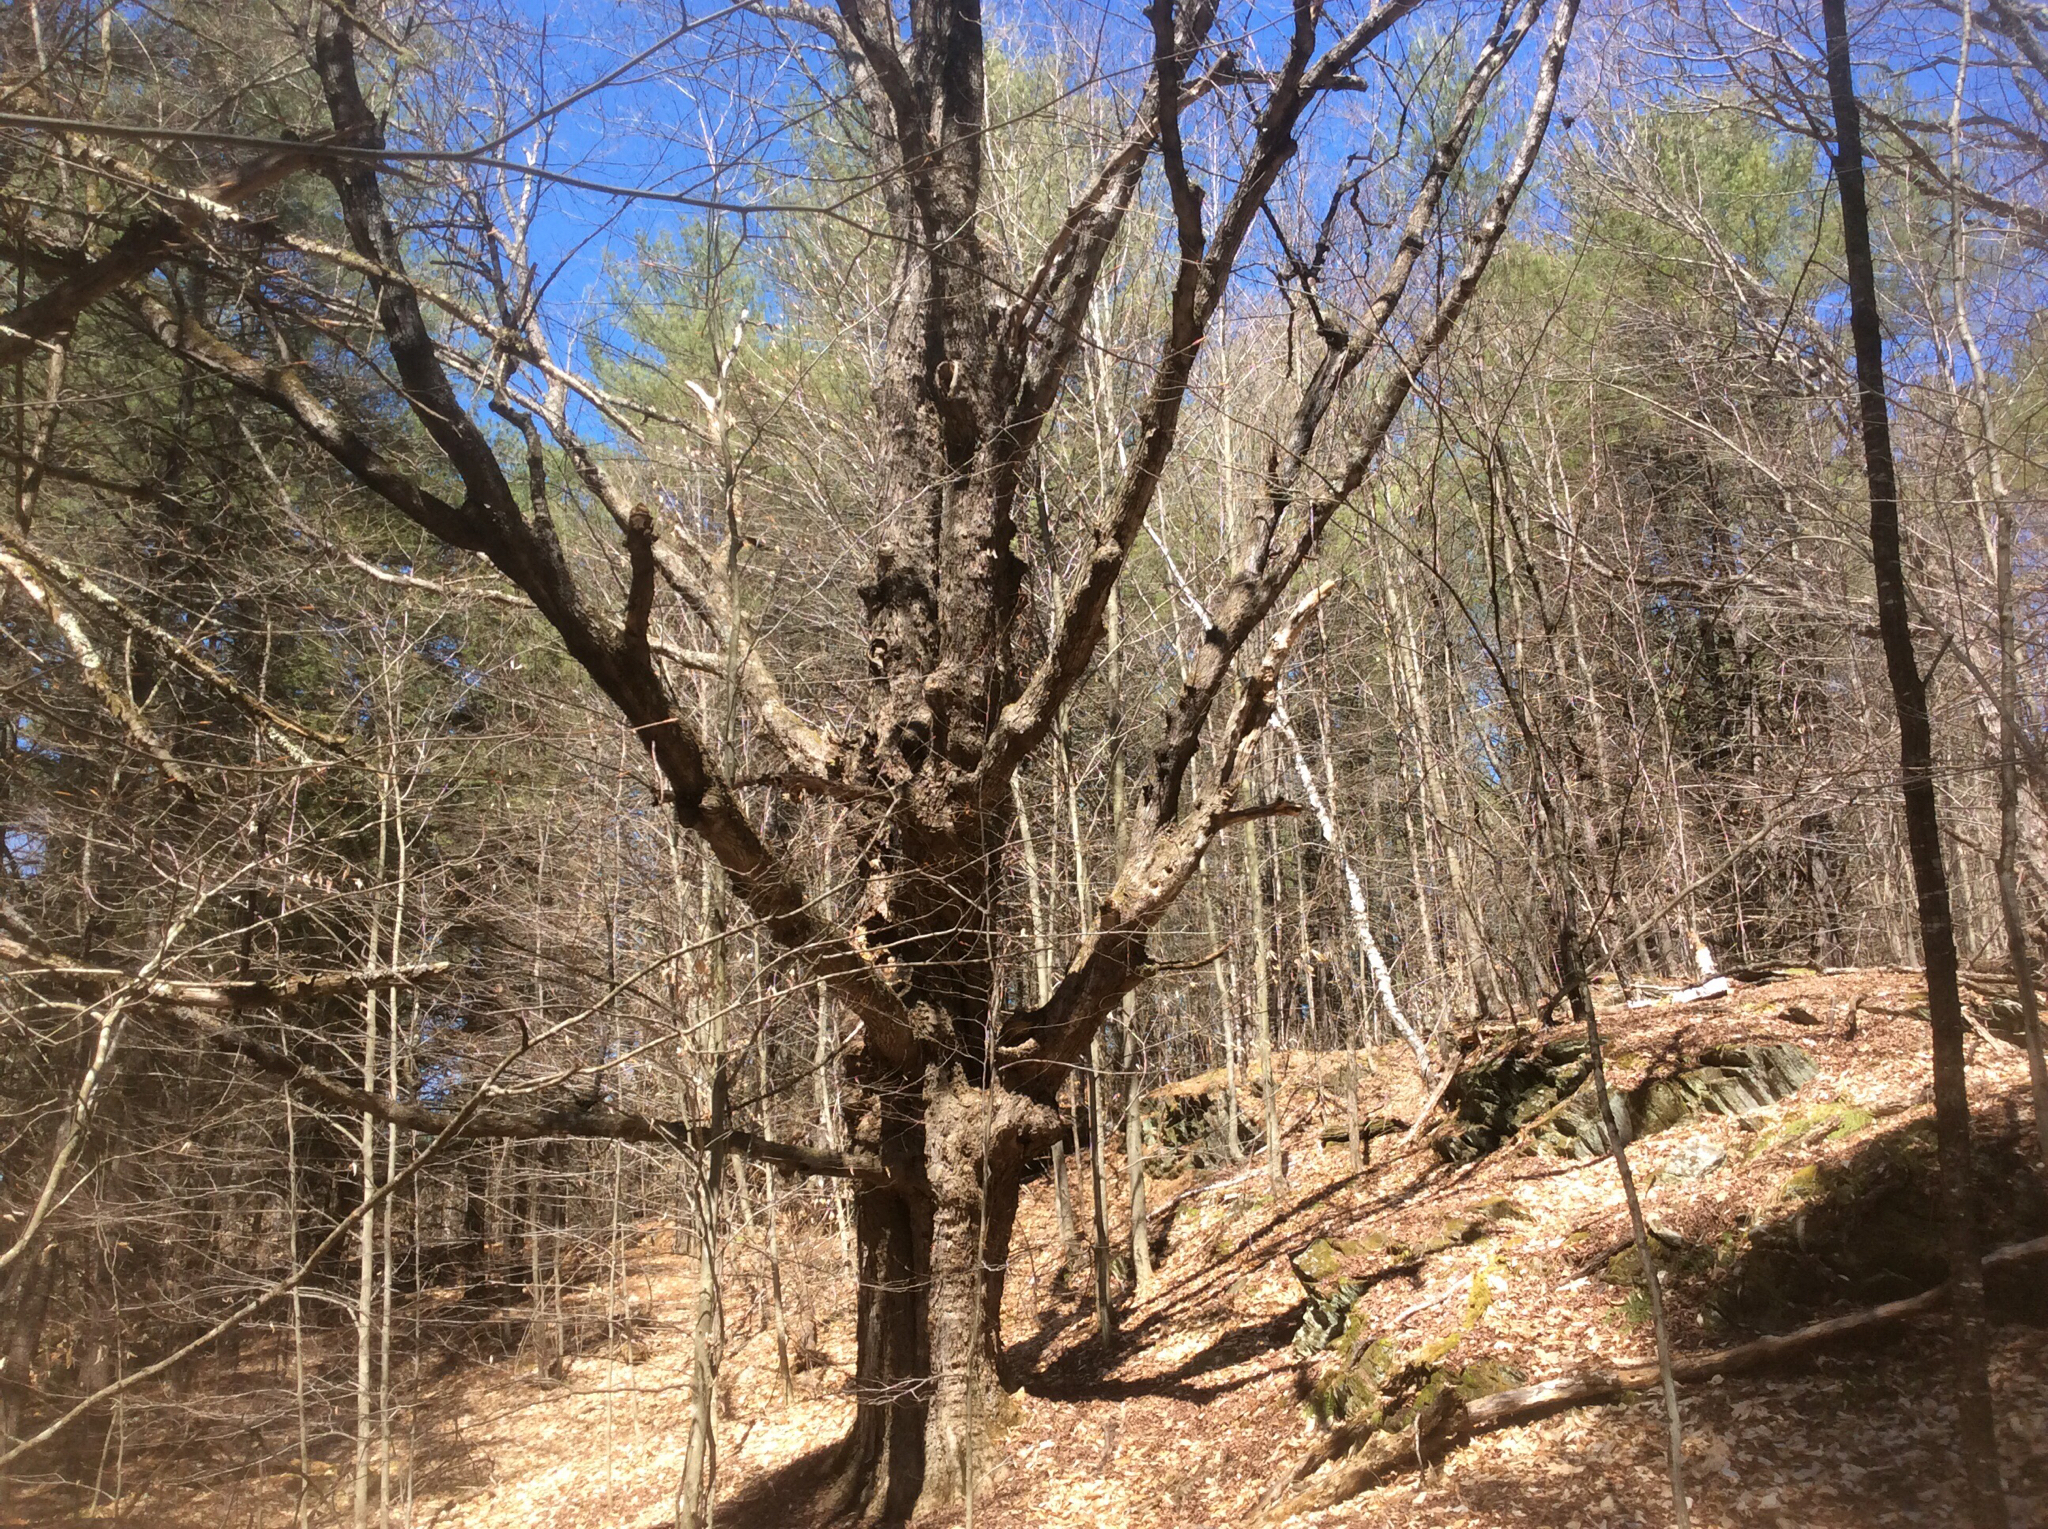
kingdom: Plantae
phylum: Tracheophyta
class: Magnoliopsida
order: Sapindales
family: Sapindaceae
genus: Acer
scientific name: Acer saccharum
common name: Sugar maple
